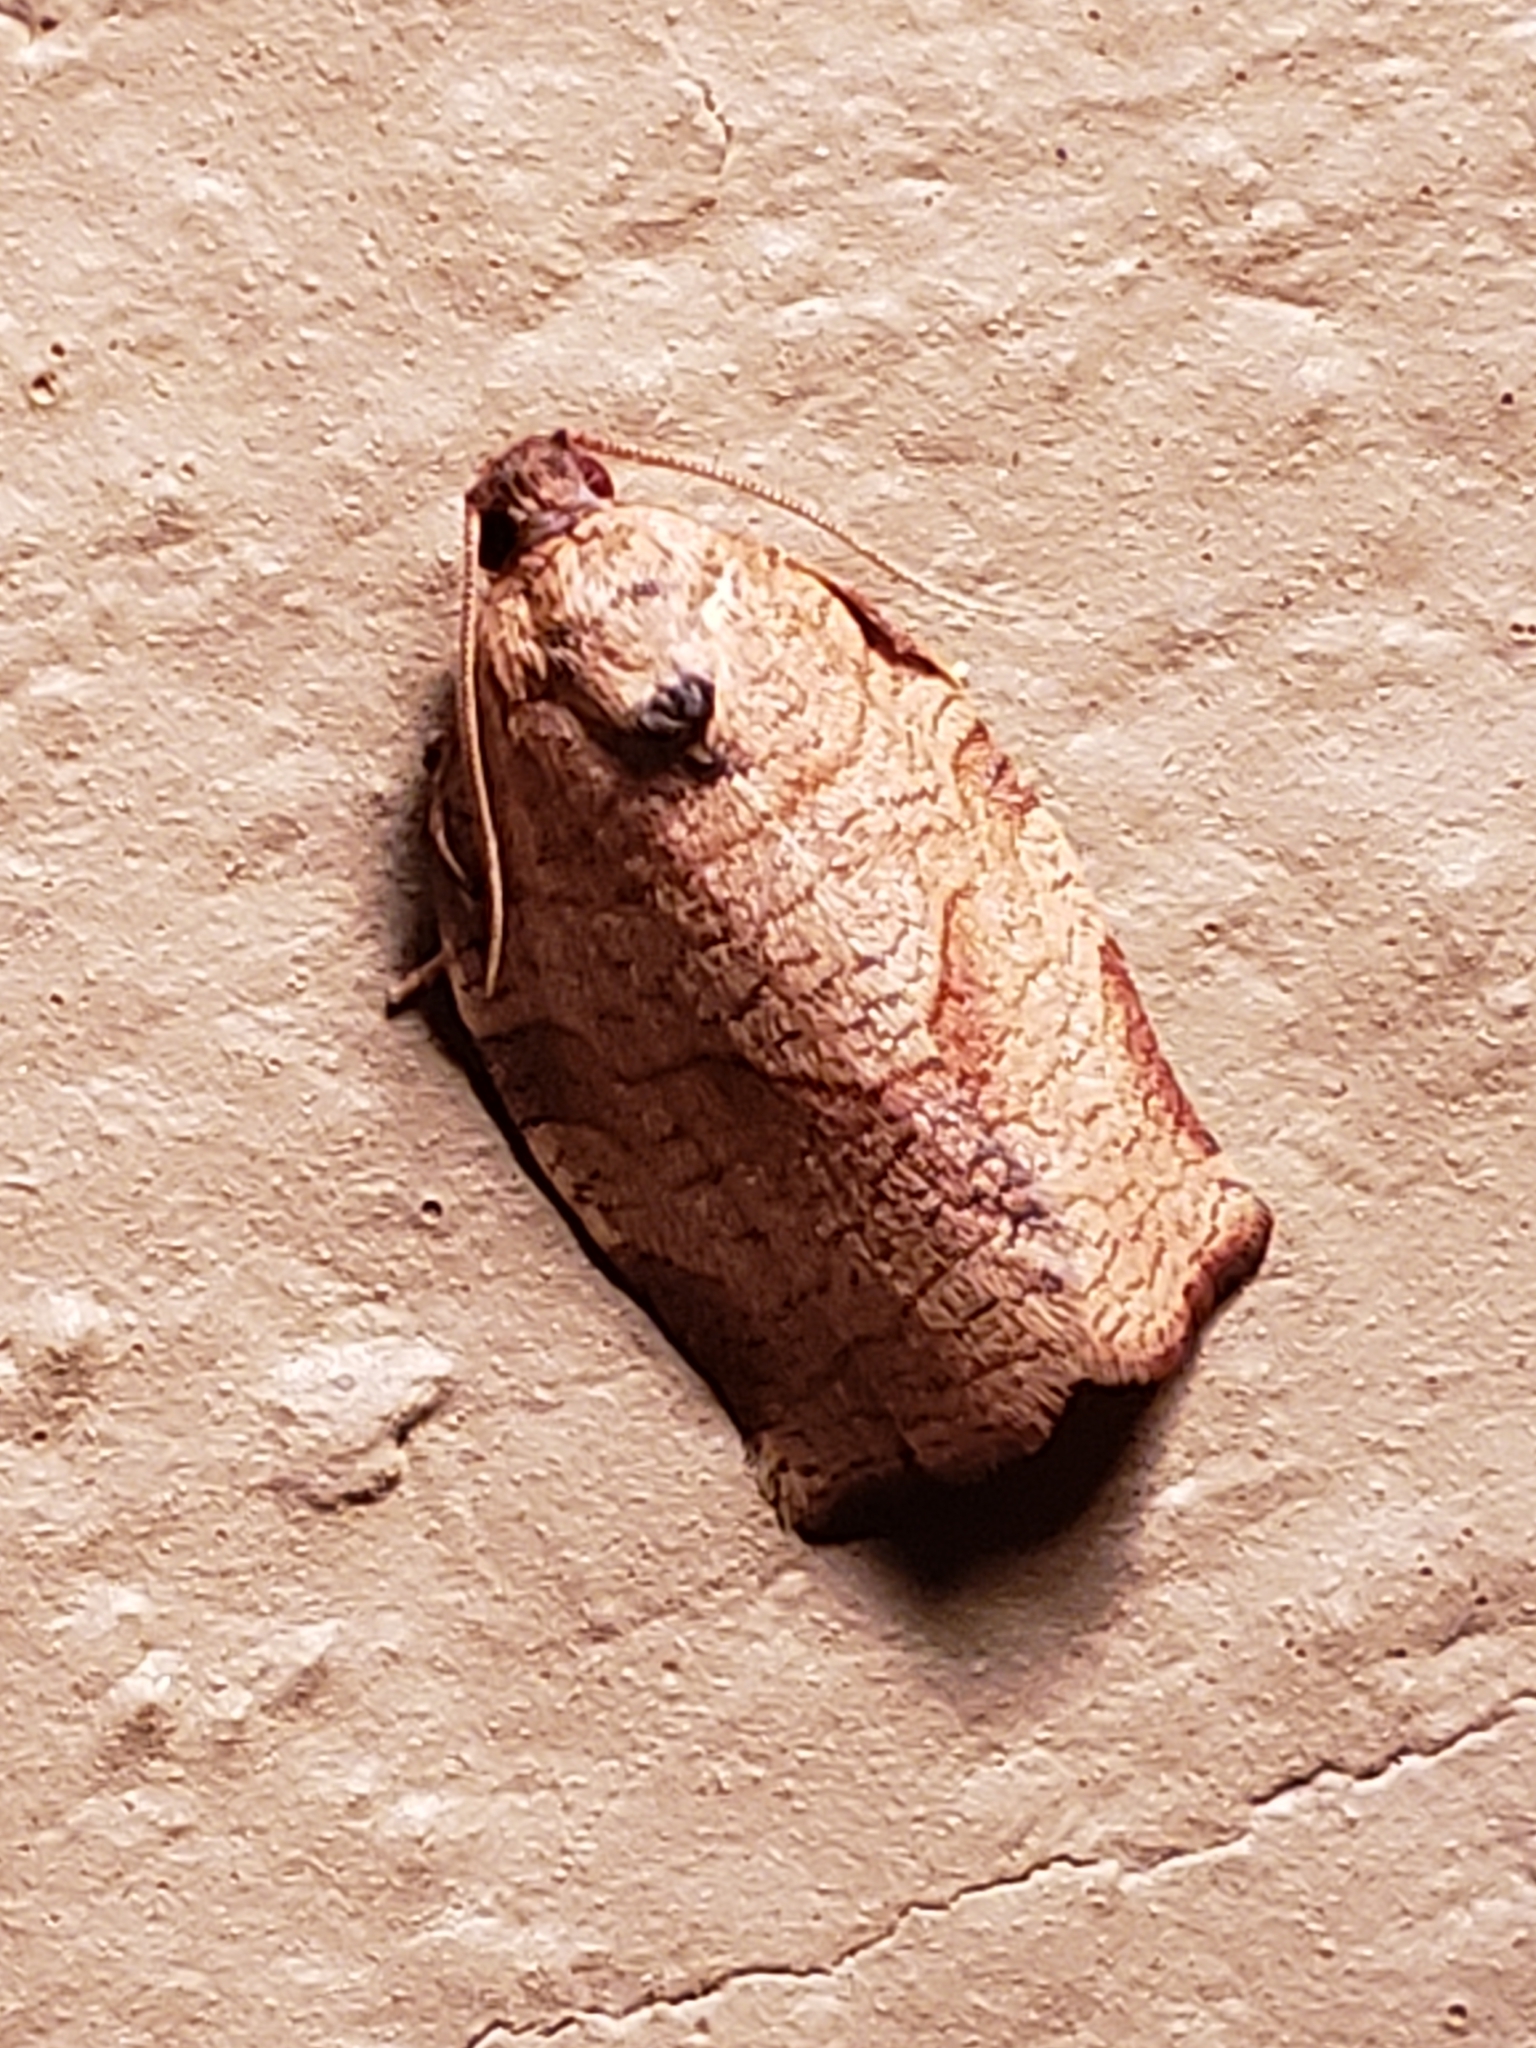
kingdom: Animalia
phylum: Arthropoda
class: Insecta
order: Lepidoptera
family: Tortricidae
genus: Choristoneura
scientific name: Choristoneura rosaceana
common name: Oblique-banded leafroller moth
